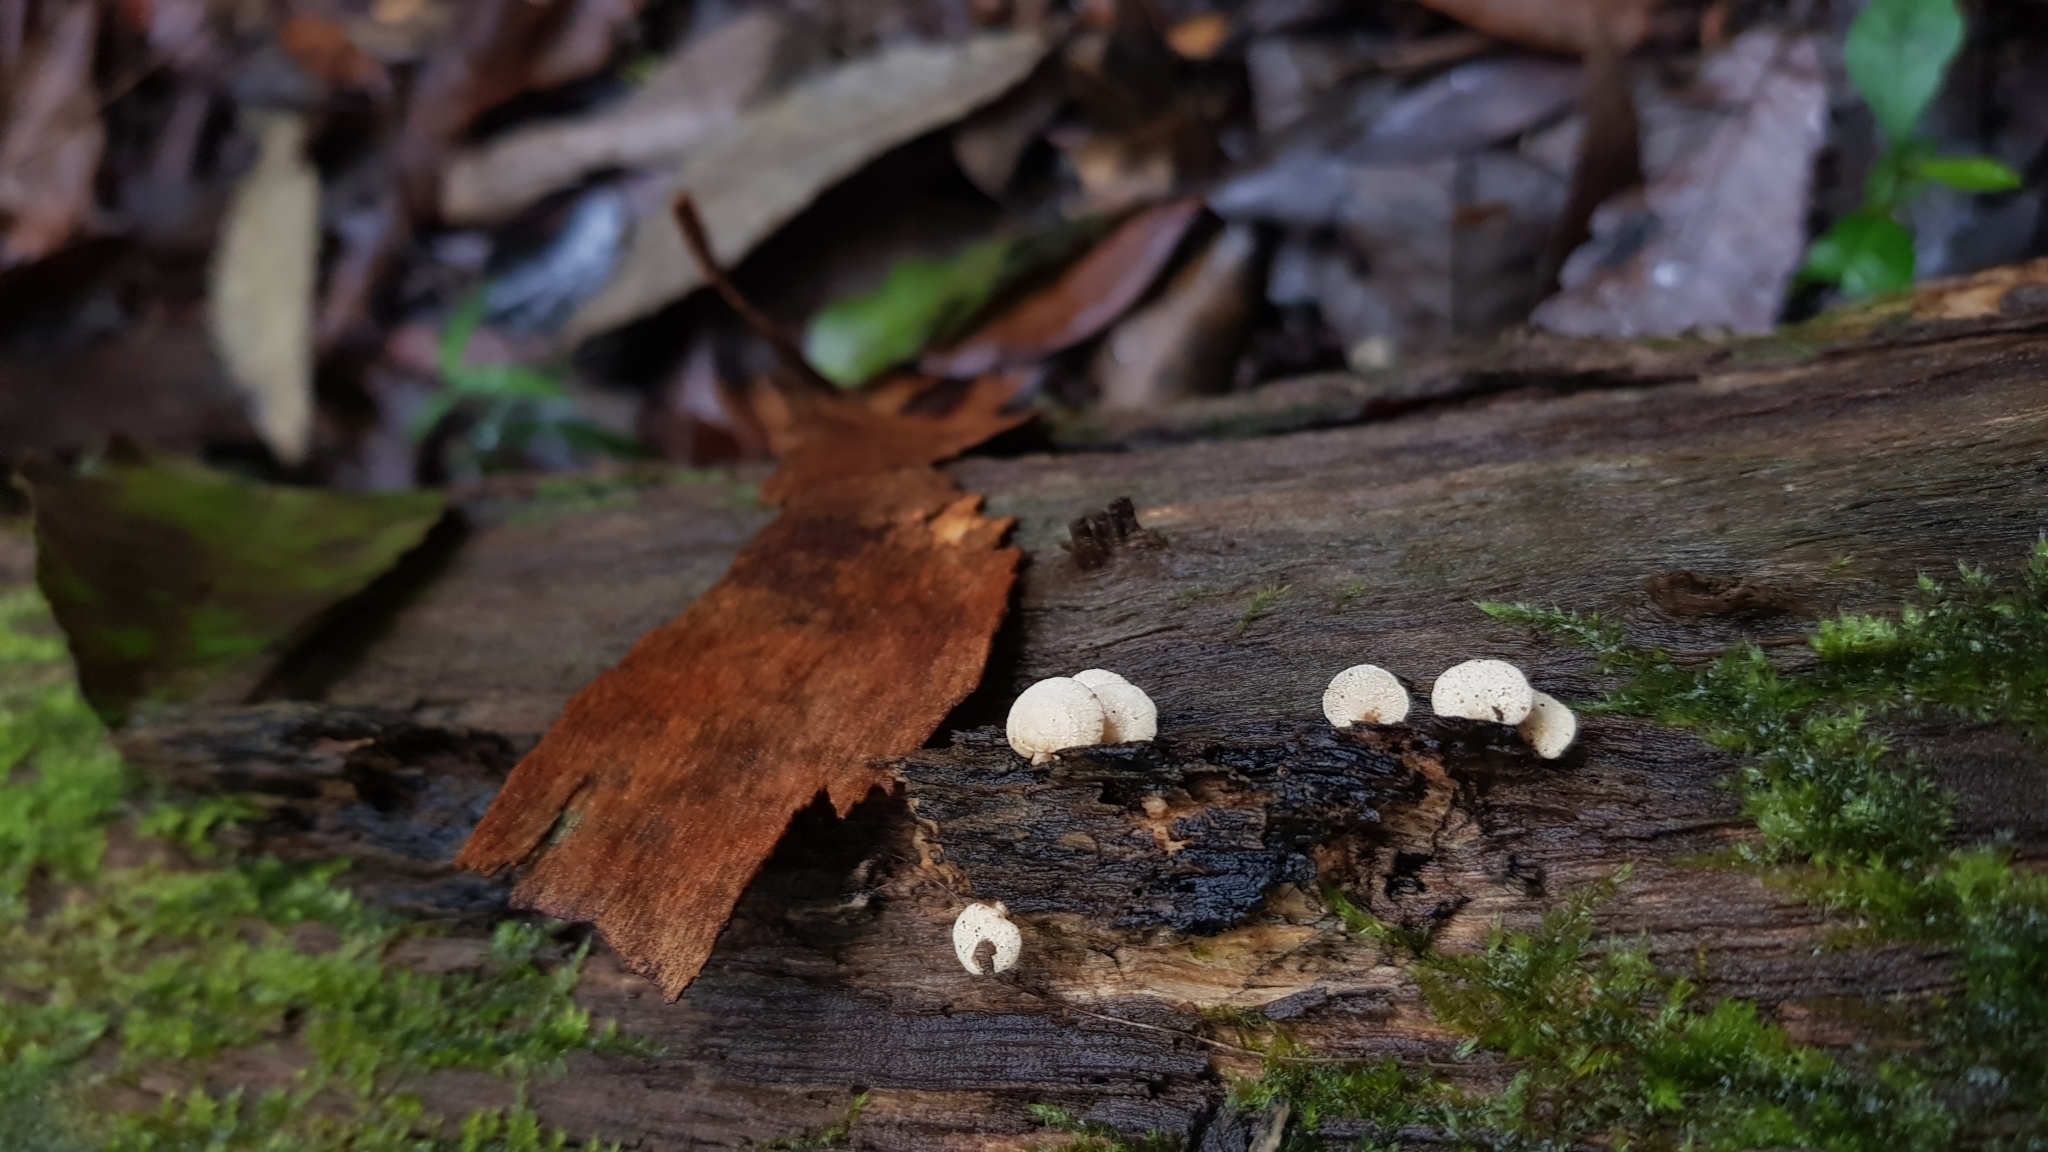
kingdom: Fungi
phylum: Basidiomycota
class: Agaricomycetes
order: Agaricales
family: Mycenaceae
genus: Panellus
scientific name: Panellus luxfilamentus
